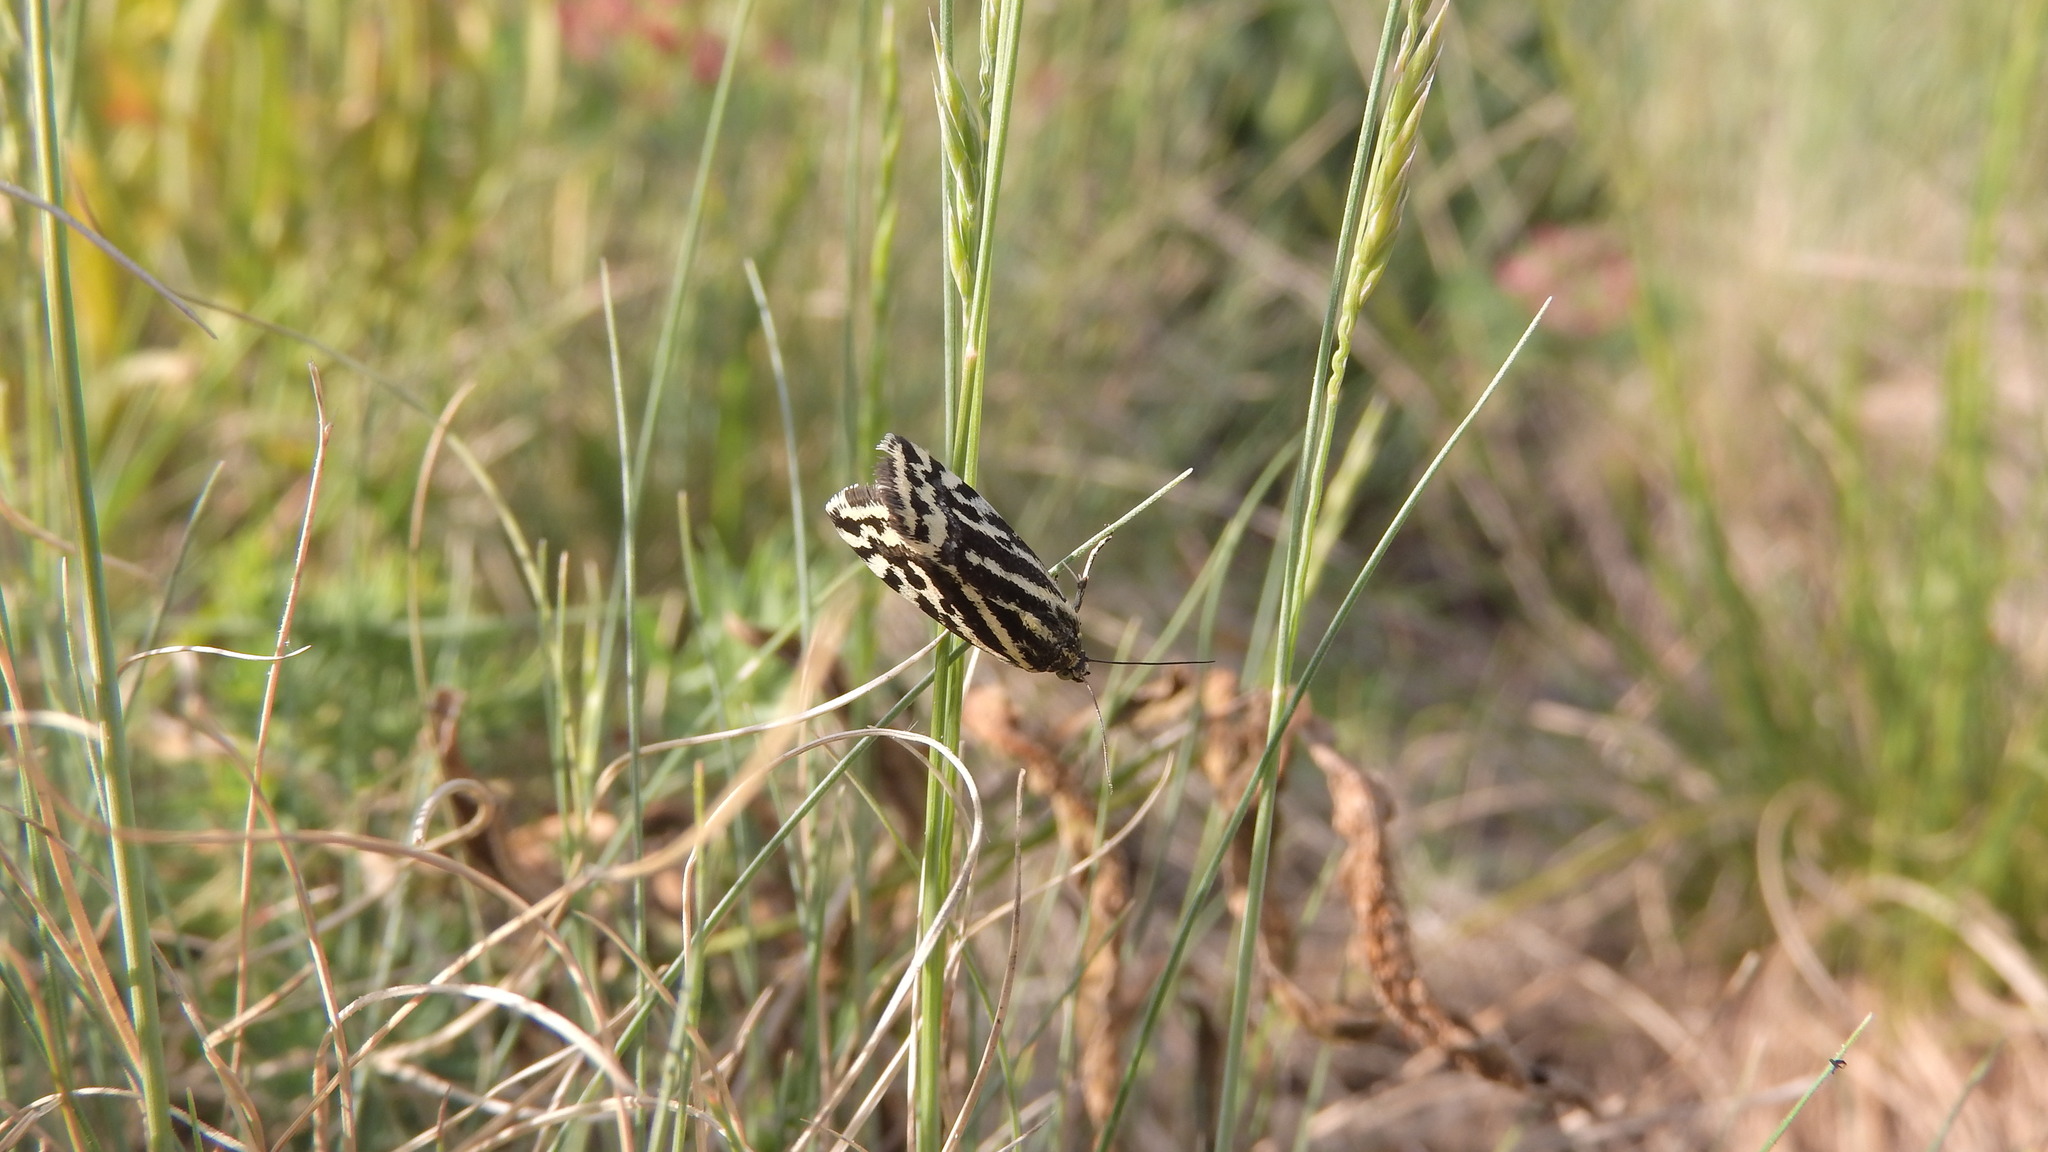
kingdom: Animalia
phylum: Arthropoda
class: Insecta
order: Lepidoptera
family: Noctuidae
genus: Acontia
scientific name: Acontia trabealis
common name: Spotted sulphur
